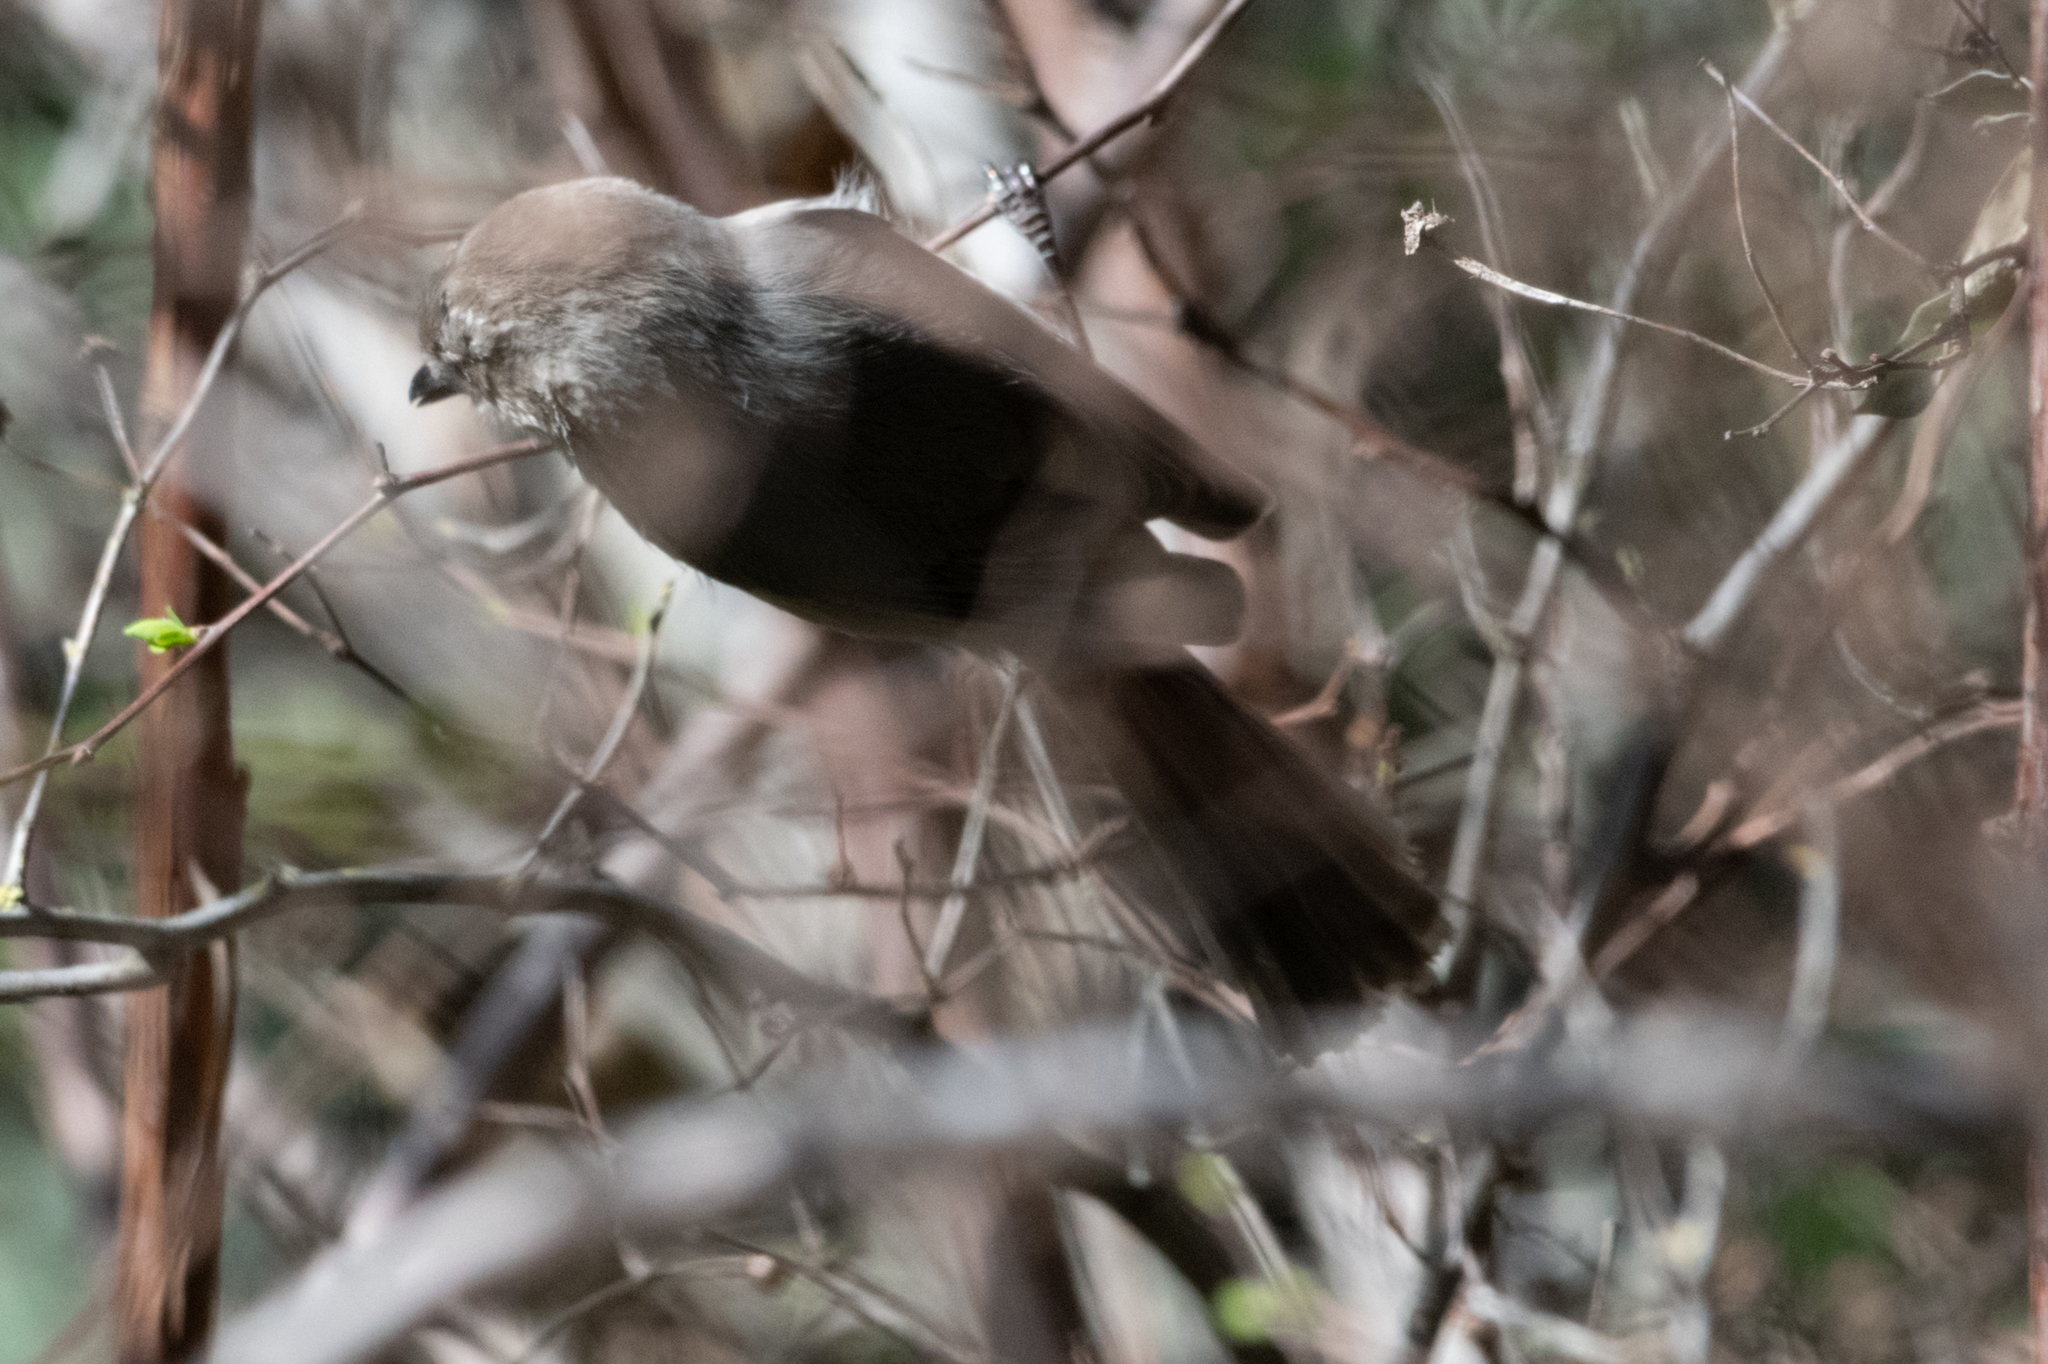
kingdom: Animalia
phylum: Chordata
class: Aves
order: Passeriformes
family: Aegithalidae
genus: Psaltriparus
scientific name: Psaltriparus minimus
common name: American bushtit
